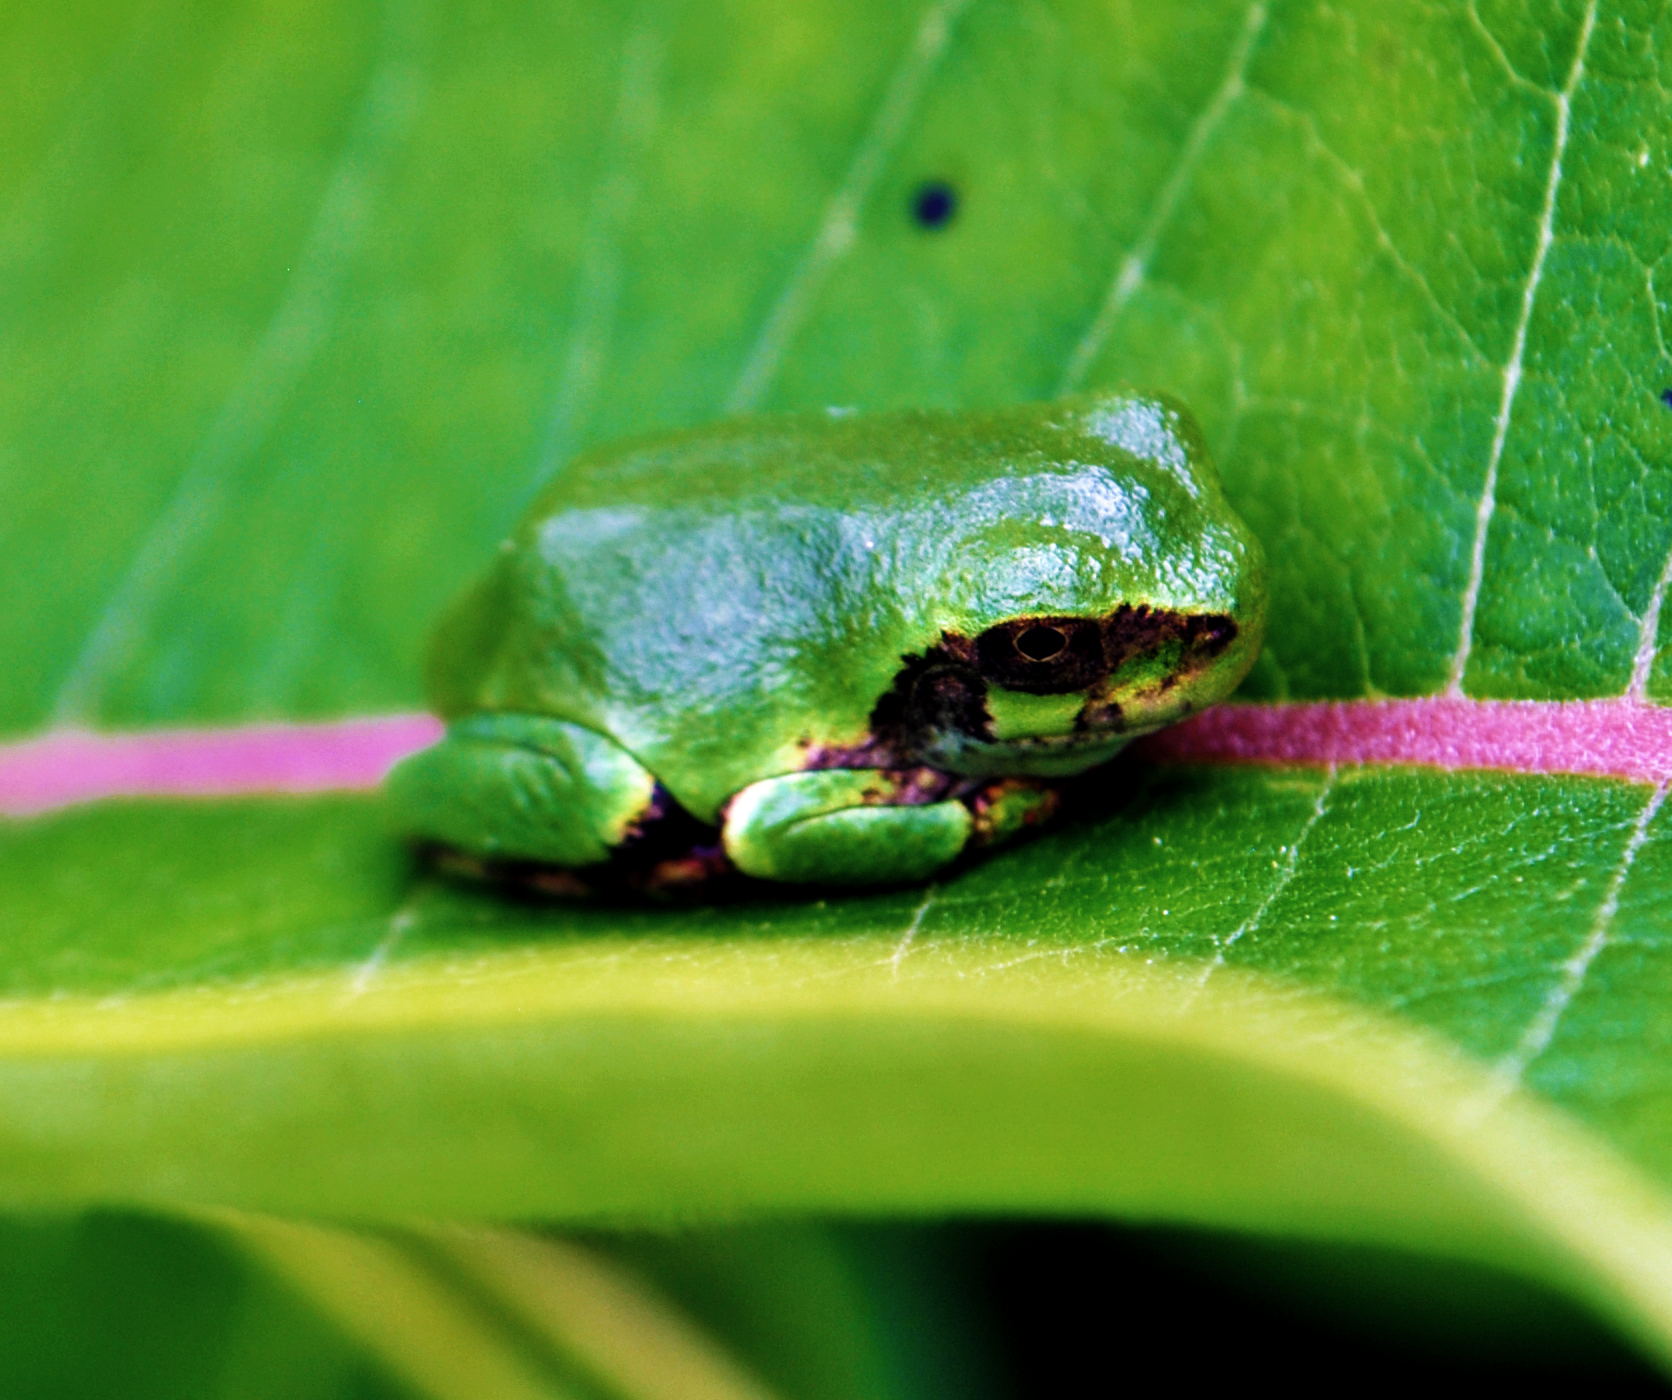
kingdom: Animalia
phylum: Chordata
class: Amphibia
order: Anura
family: Hylidae
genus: Hyla
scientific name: Hyla
